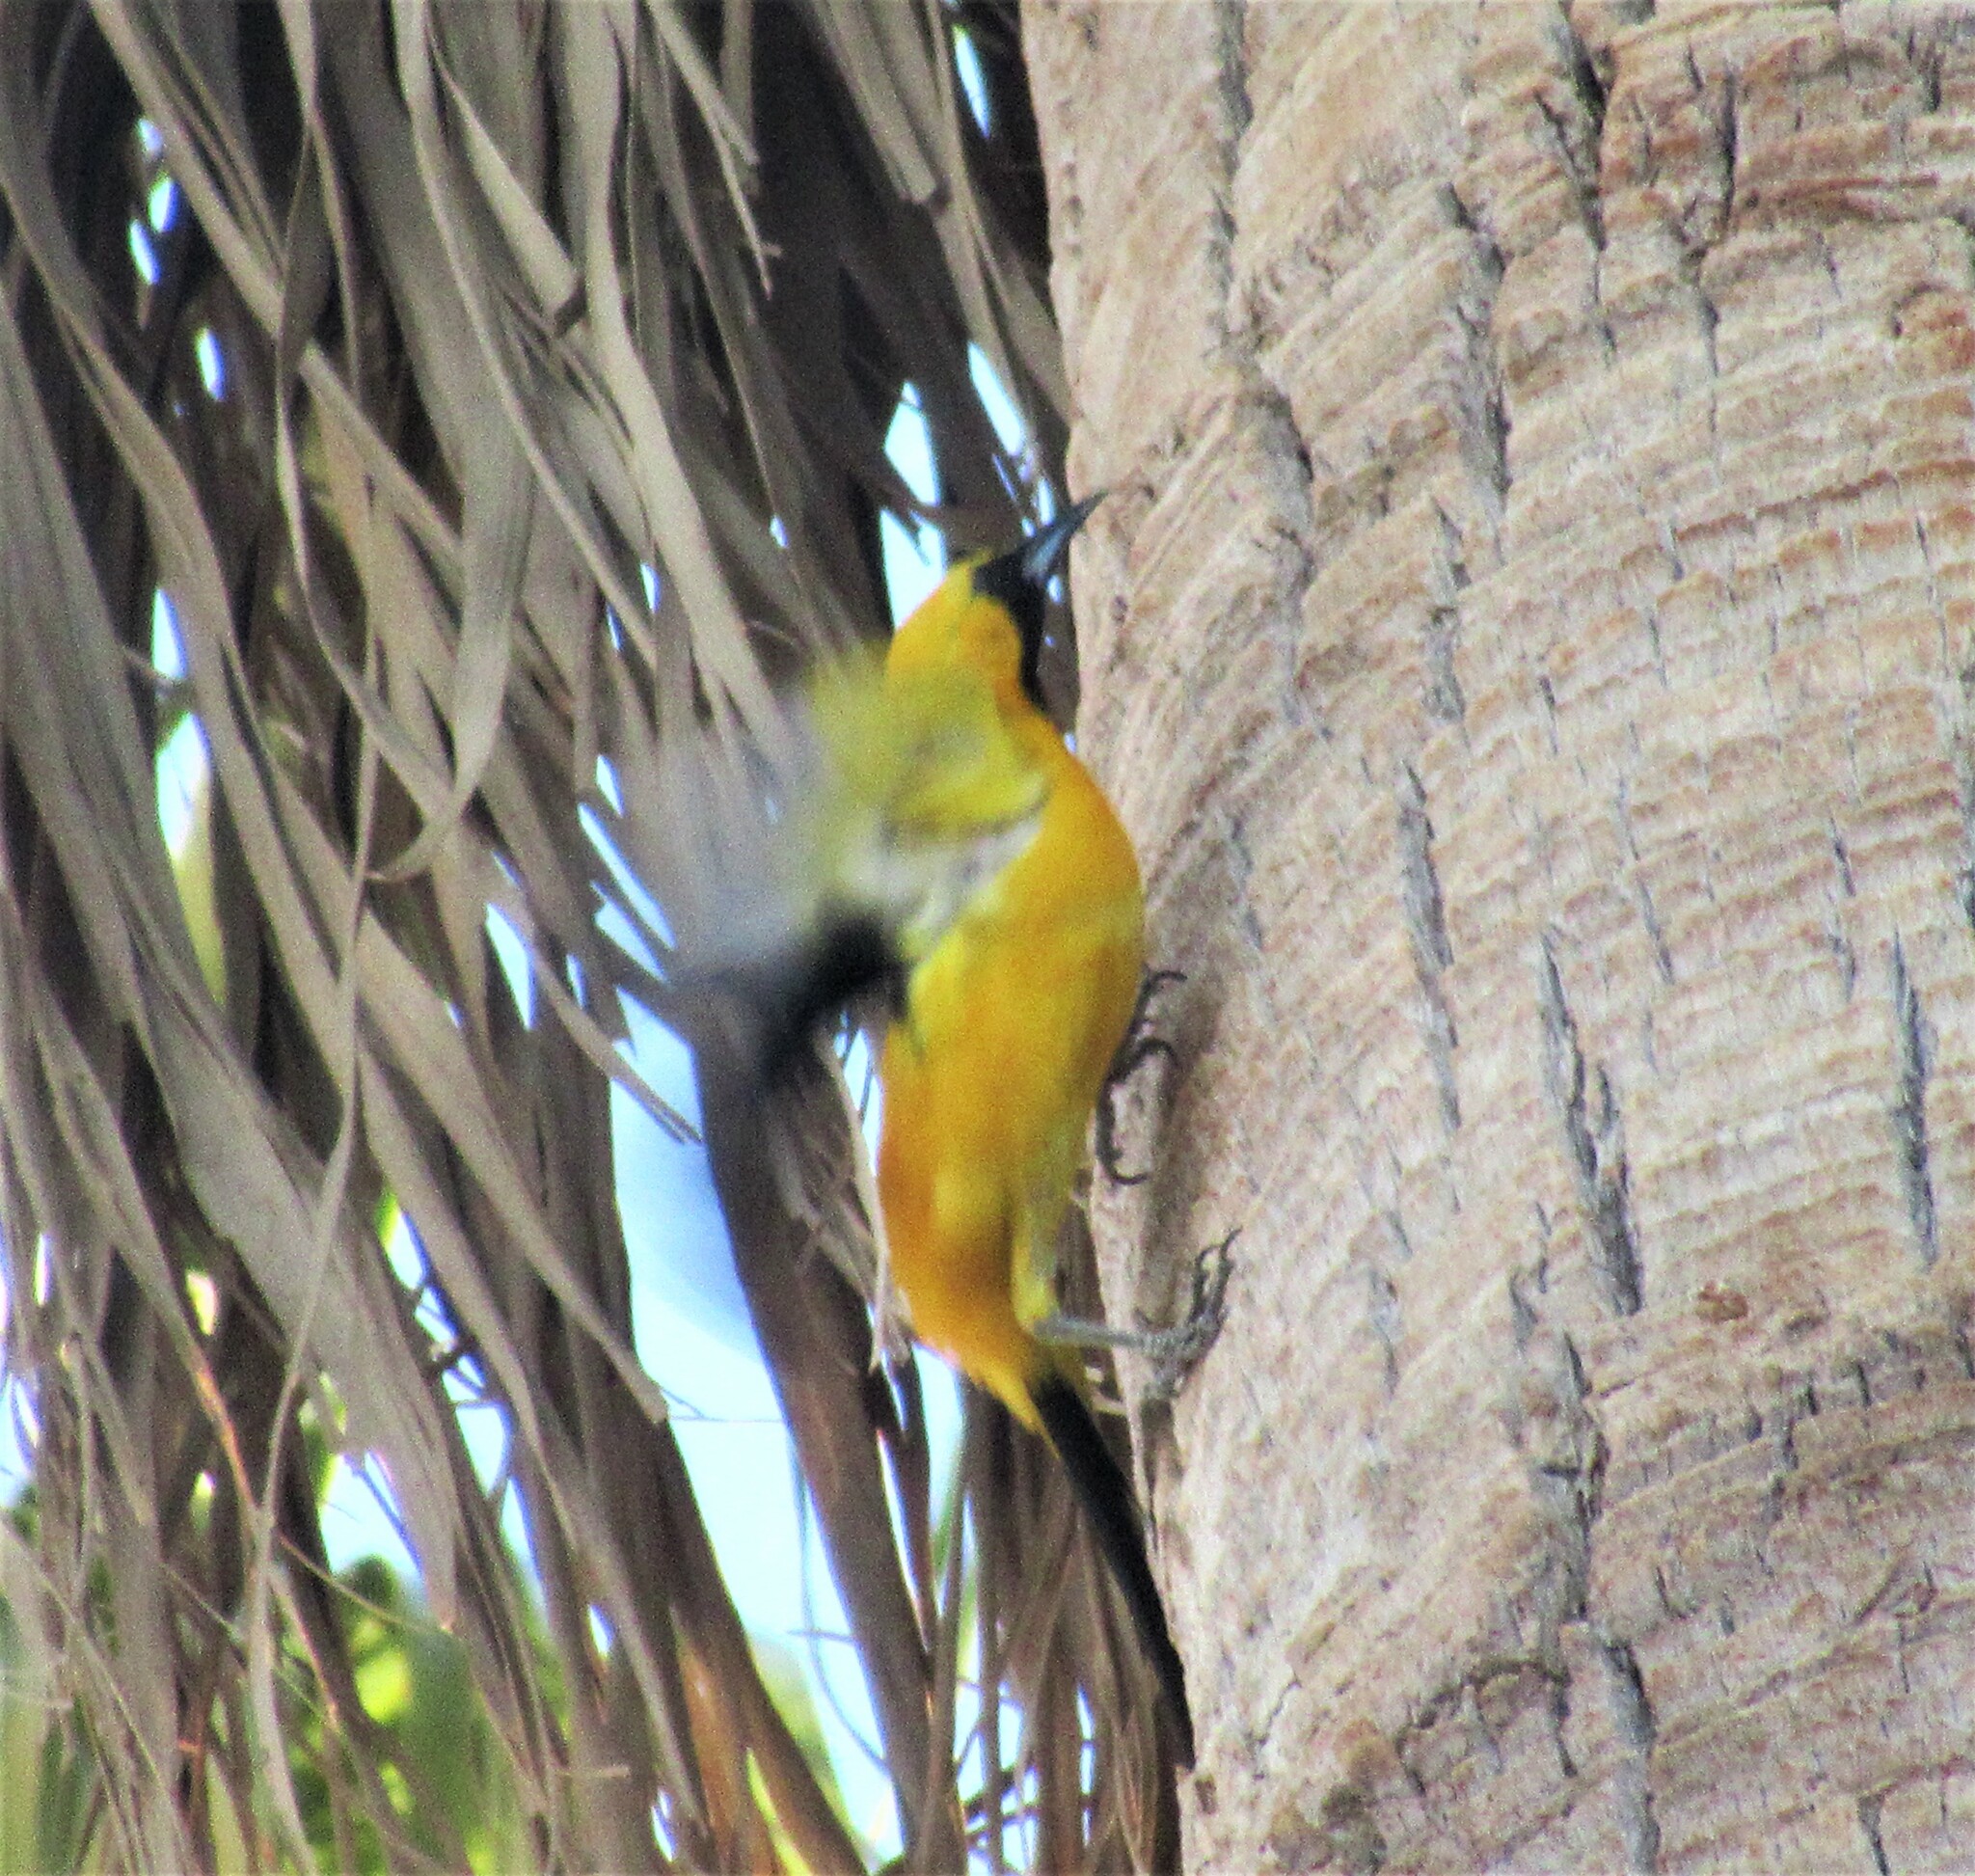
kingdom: Animalia
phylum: Chordata
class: Aves
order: Passeriformes
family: Icteridae
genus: Icterus
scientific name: Icterus cucullatus
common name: Hooded oriole
